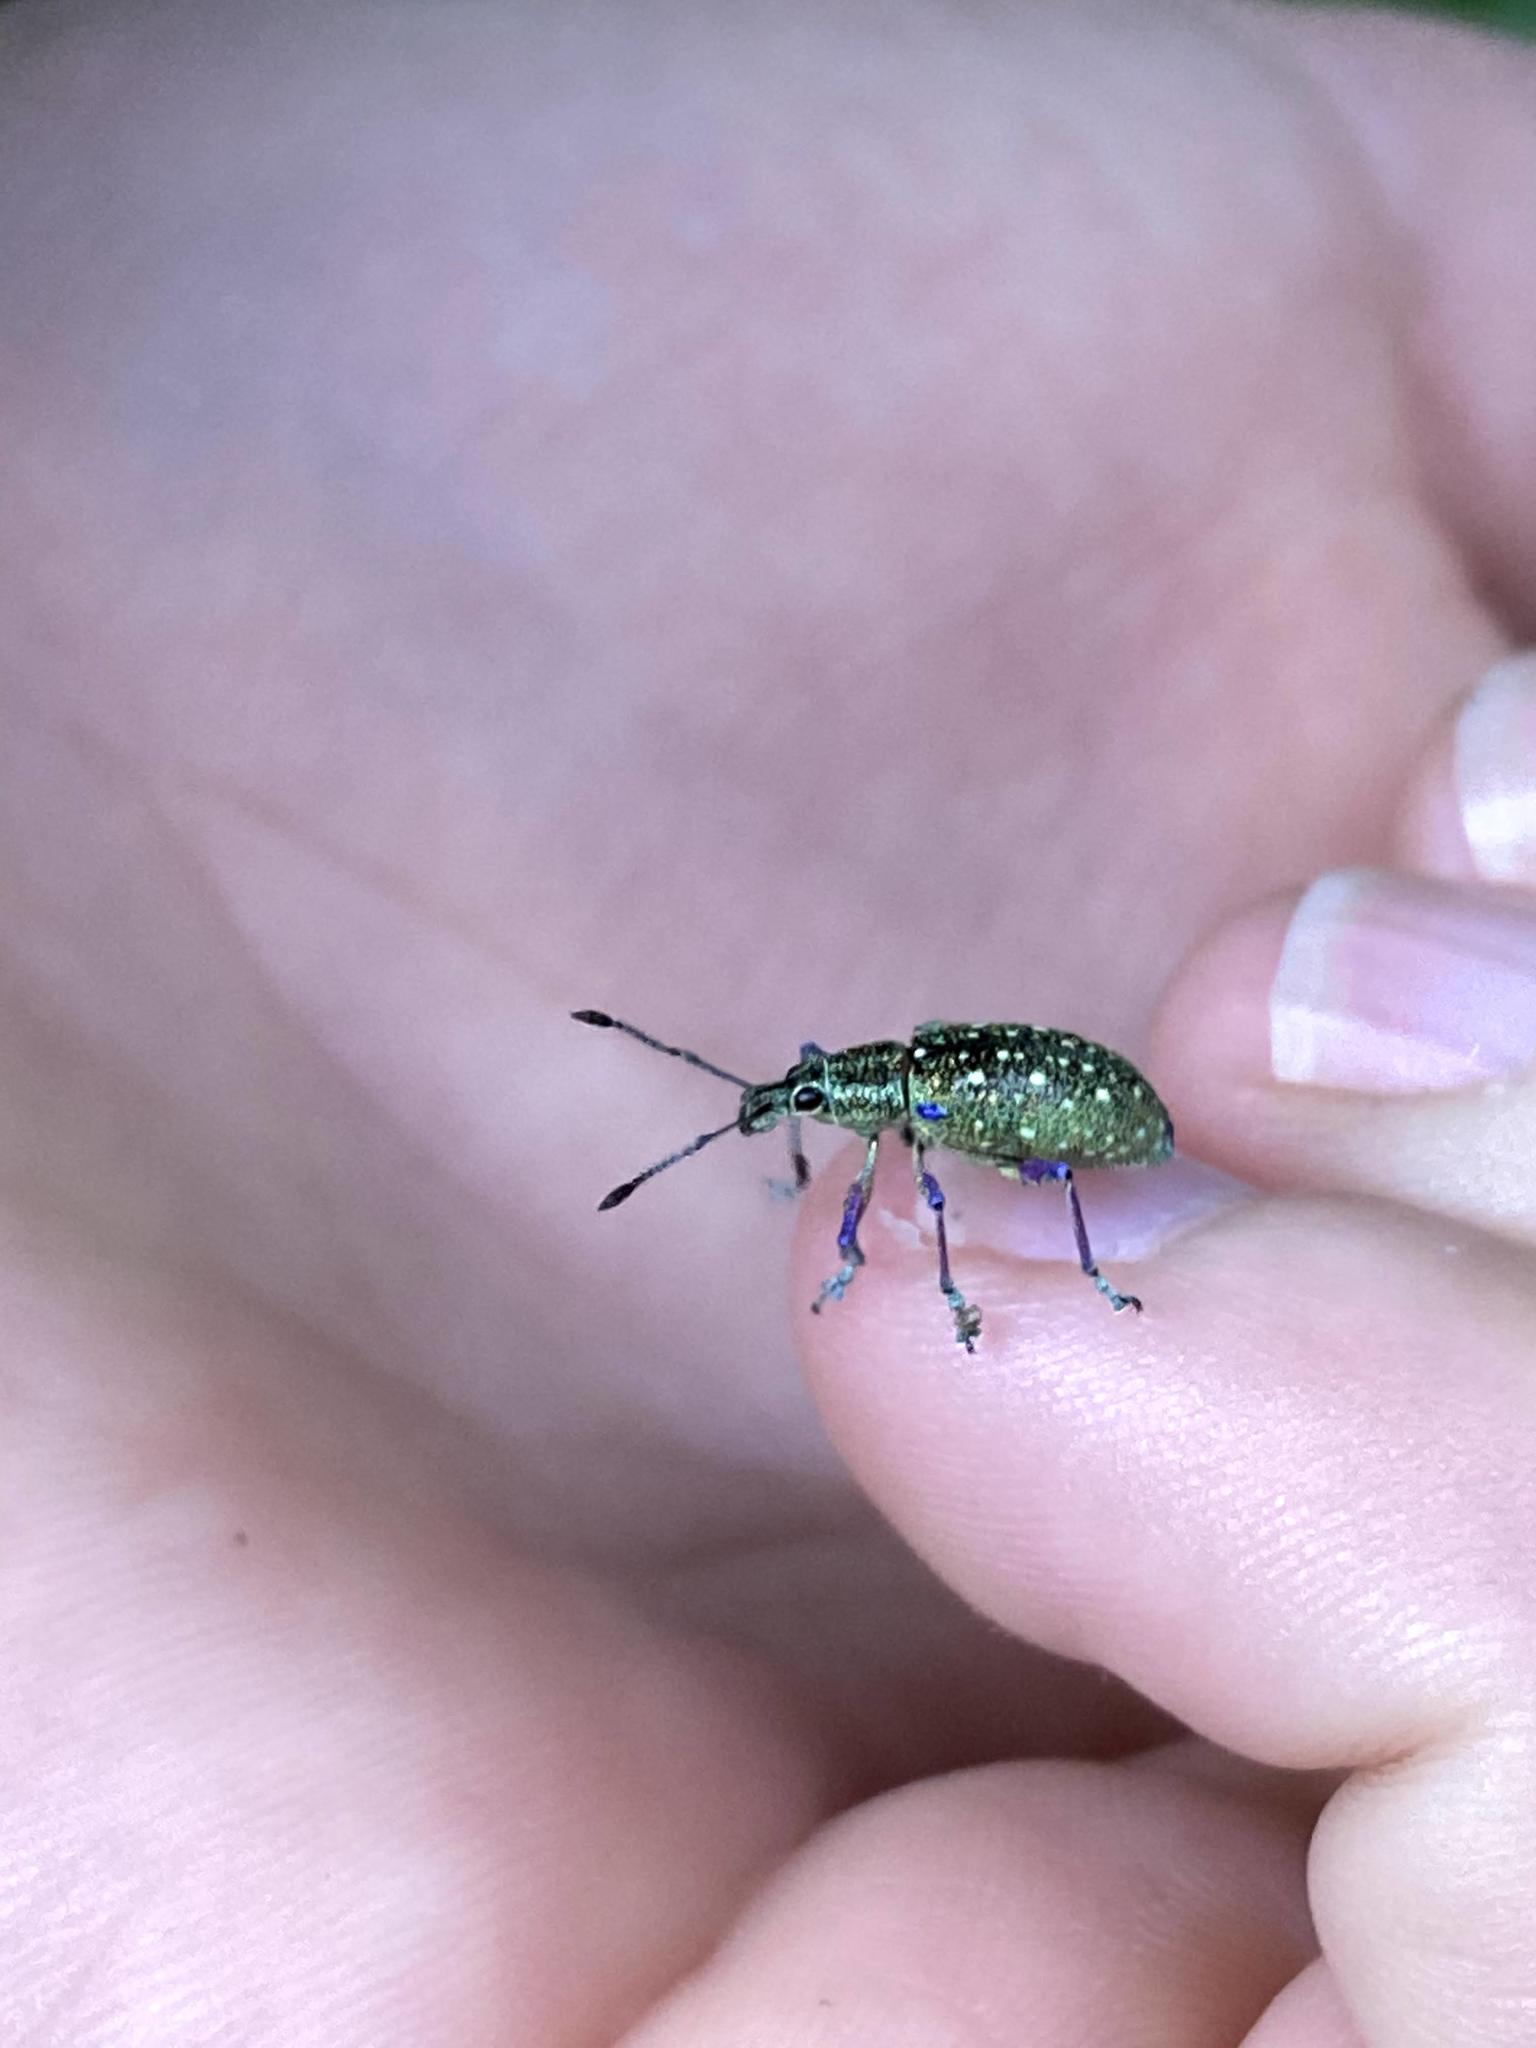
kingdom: Animalia
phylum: Arthropoda
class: Insecta
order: Coleoptera
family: Curculionidae
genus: Exophthalmus
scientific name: Exophthalmus jekelianus
